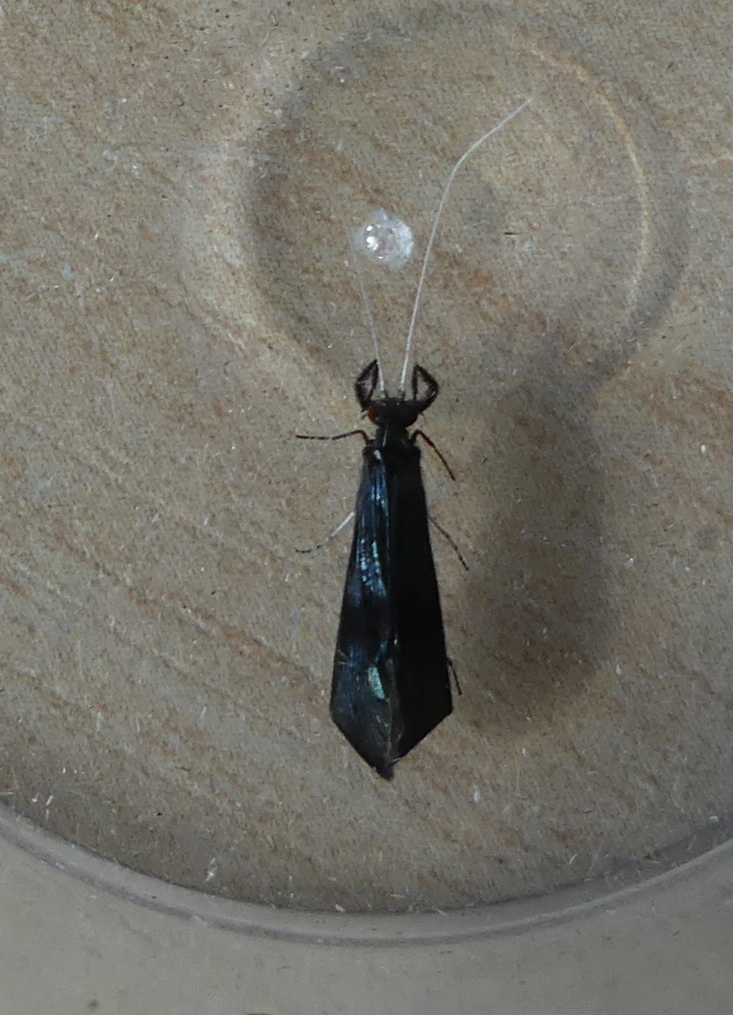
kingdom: Animalia
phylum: Arthropoda
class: Insecta
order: Trichoptera
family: Leptoceridae
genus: Mystacides
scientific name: Mystacides azureus
